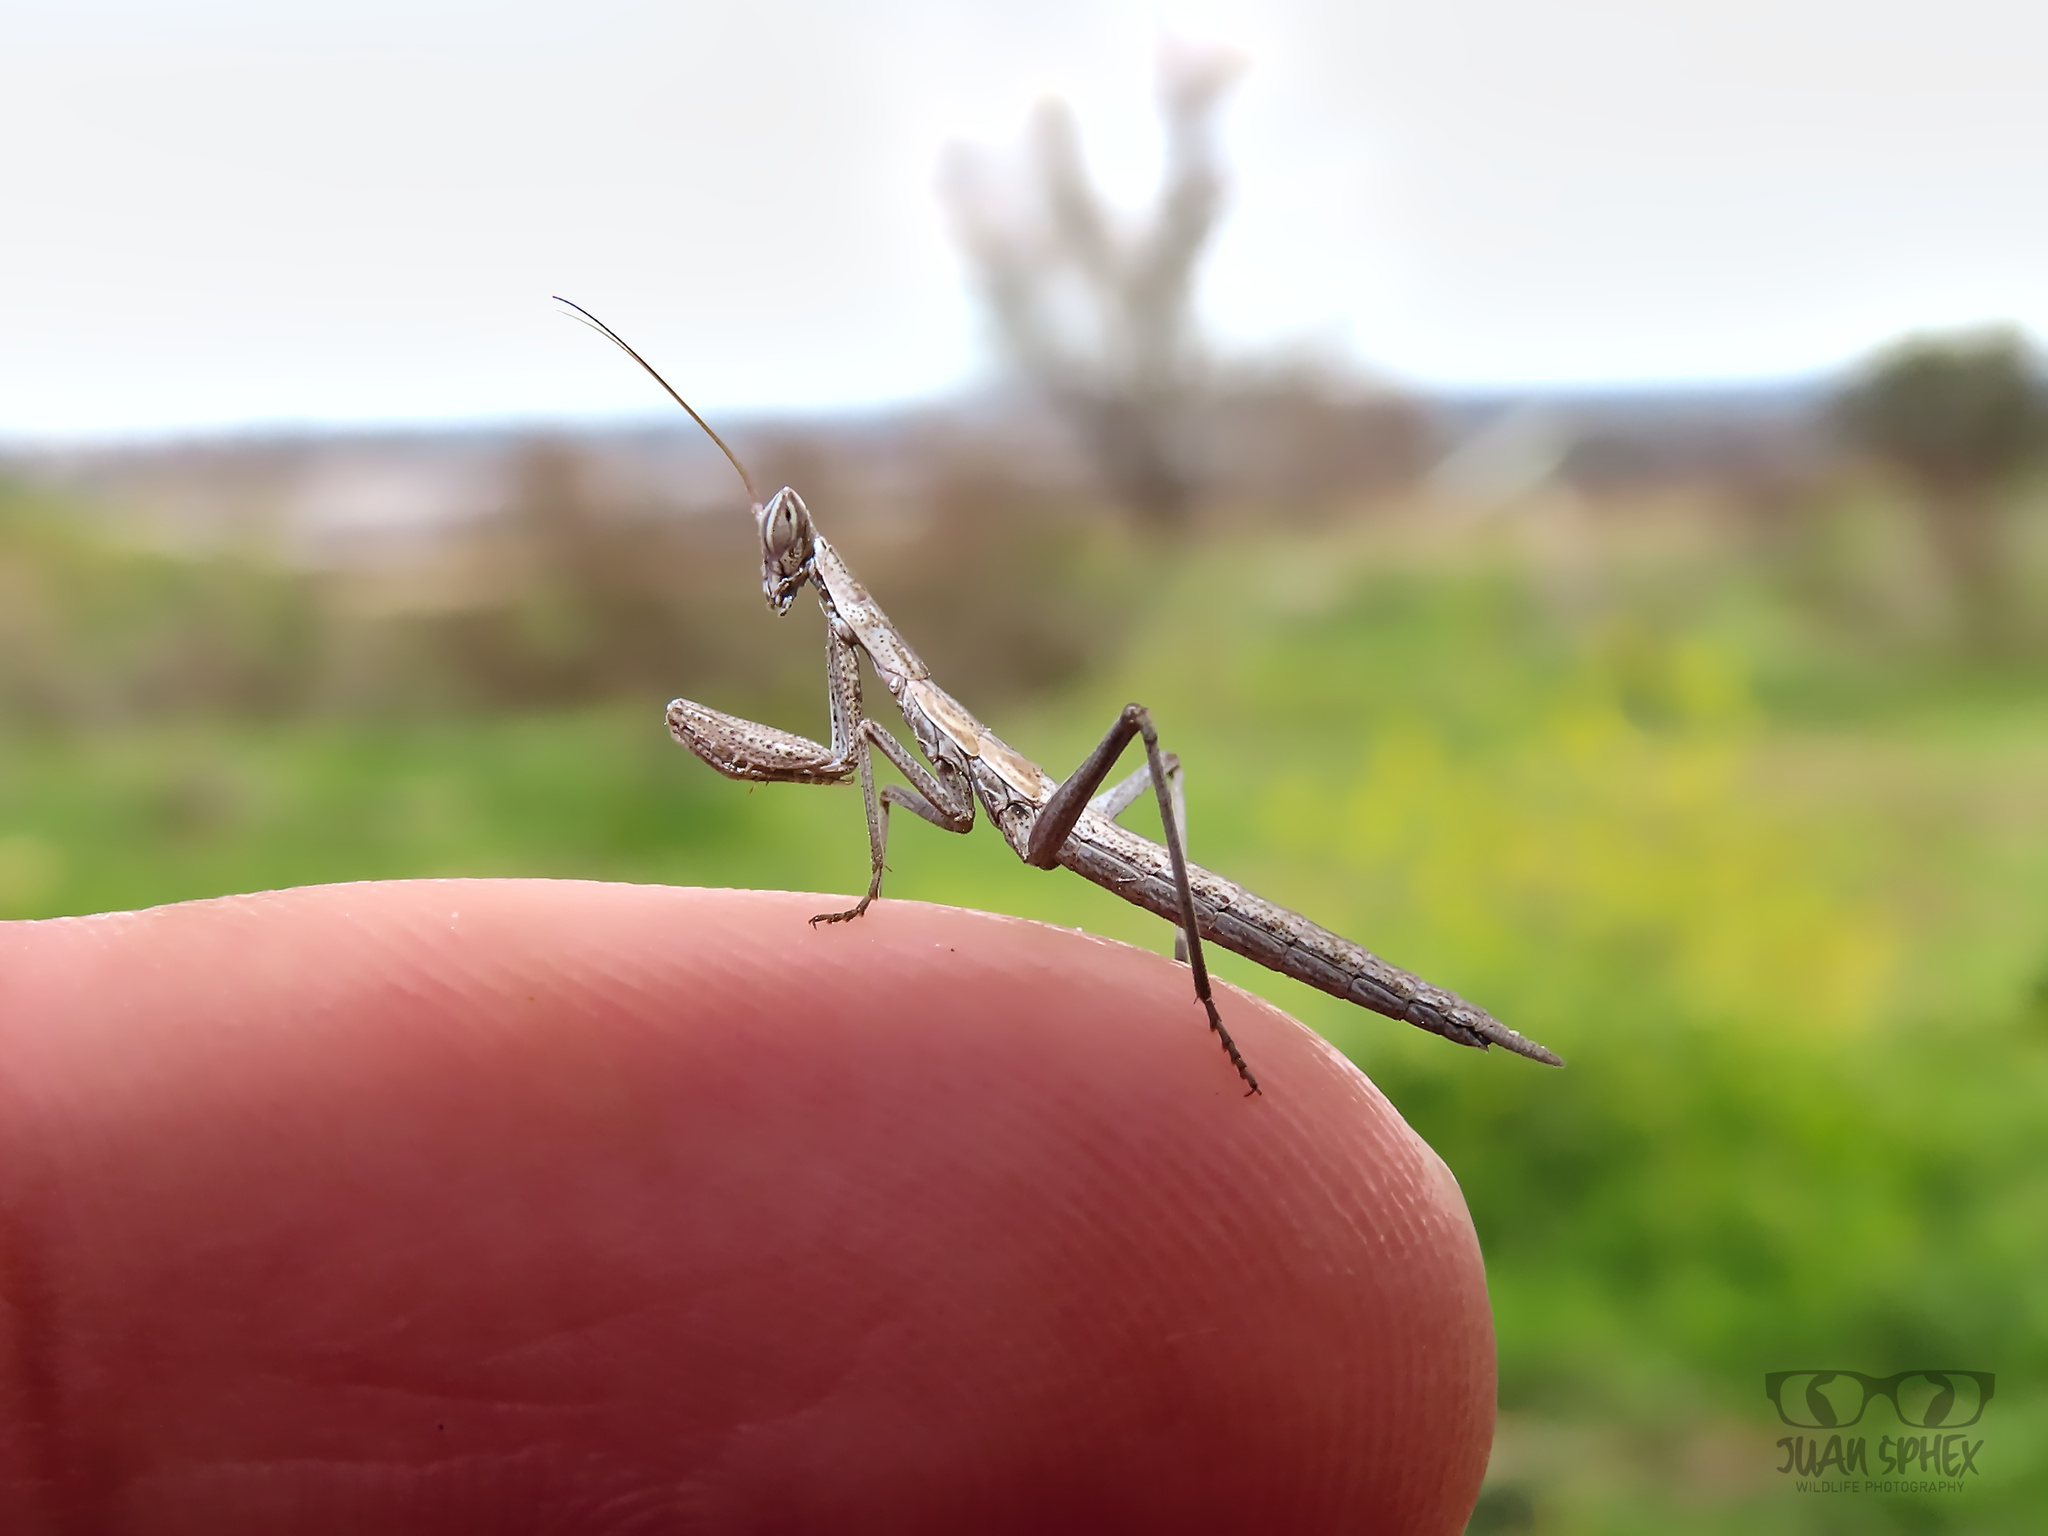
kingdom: Animalia
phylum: Arthropoda
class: Insecta
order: Mantodea
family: Amelidae
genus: Ameles
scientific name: Ameles picteti
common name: Pictet's dwarf mantis
